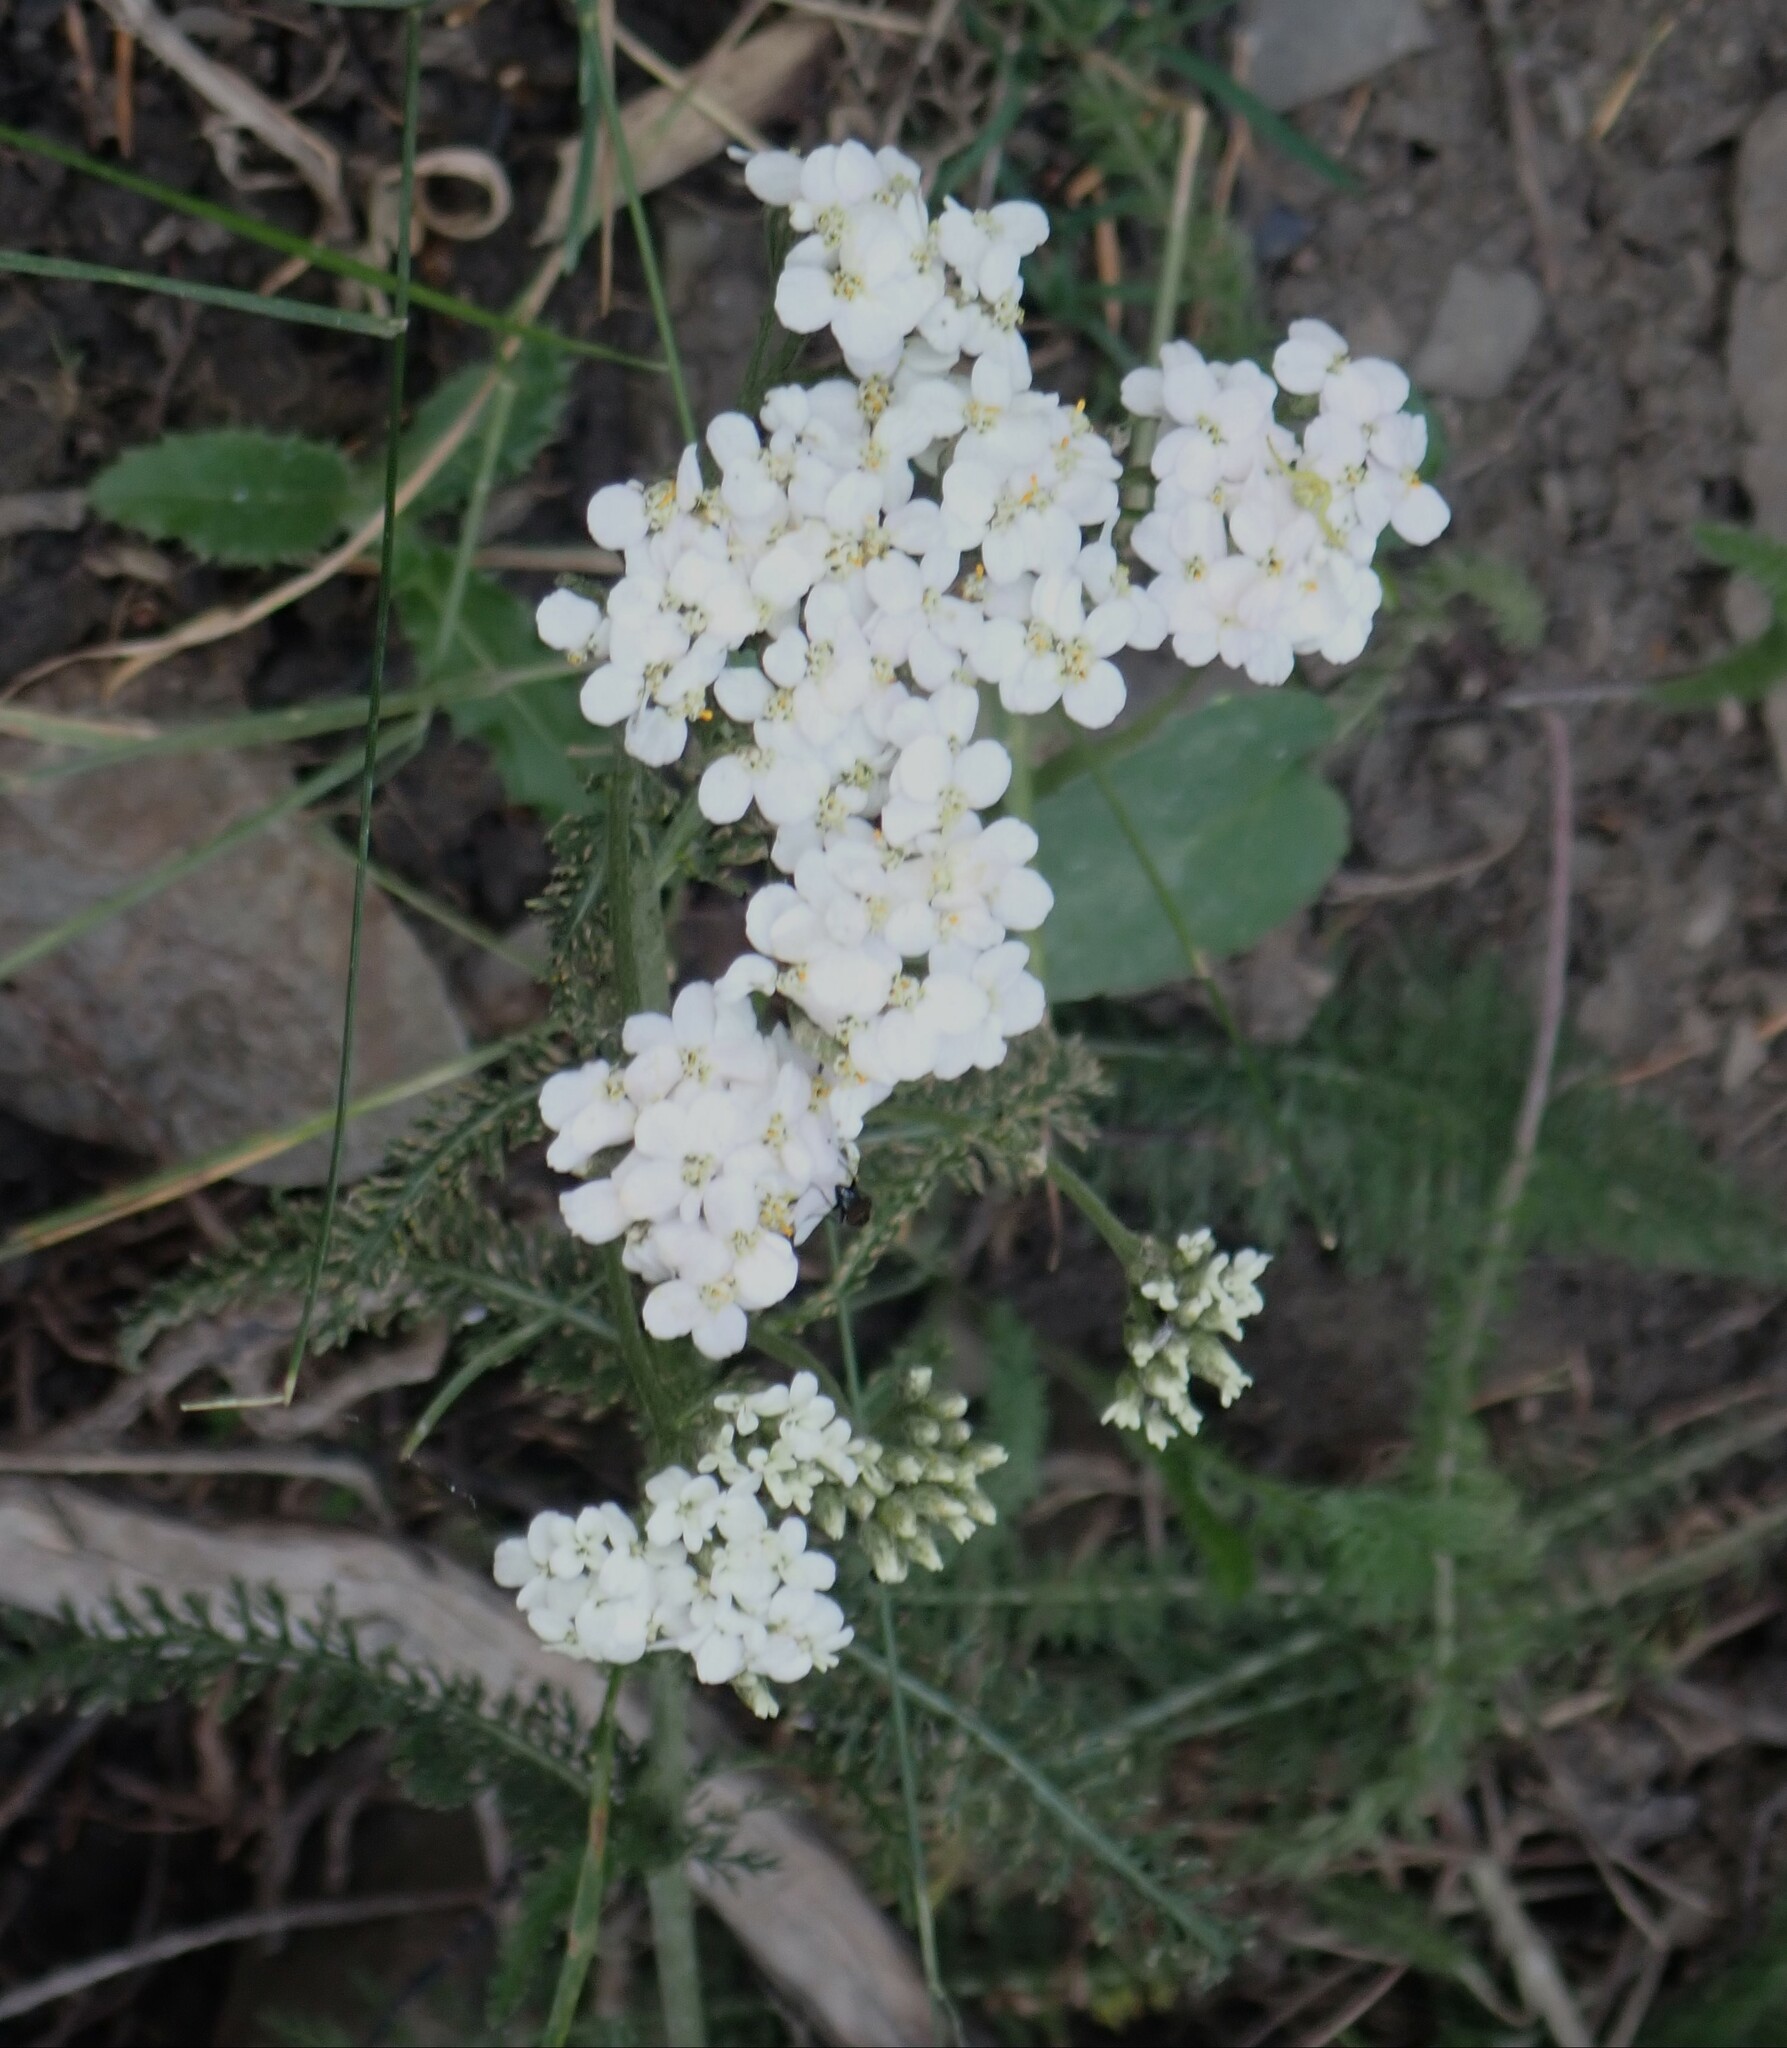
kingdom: Plantae
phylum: Tracheophyta
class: Magnoliopsida
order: Asterales
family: Asteraceae
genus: Achillea
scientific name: Achillea millefolium
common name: Yarrow
